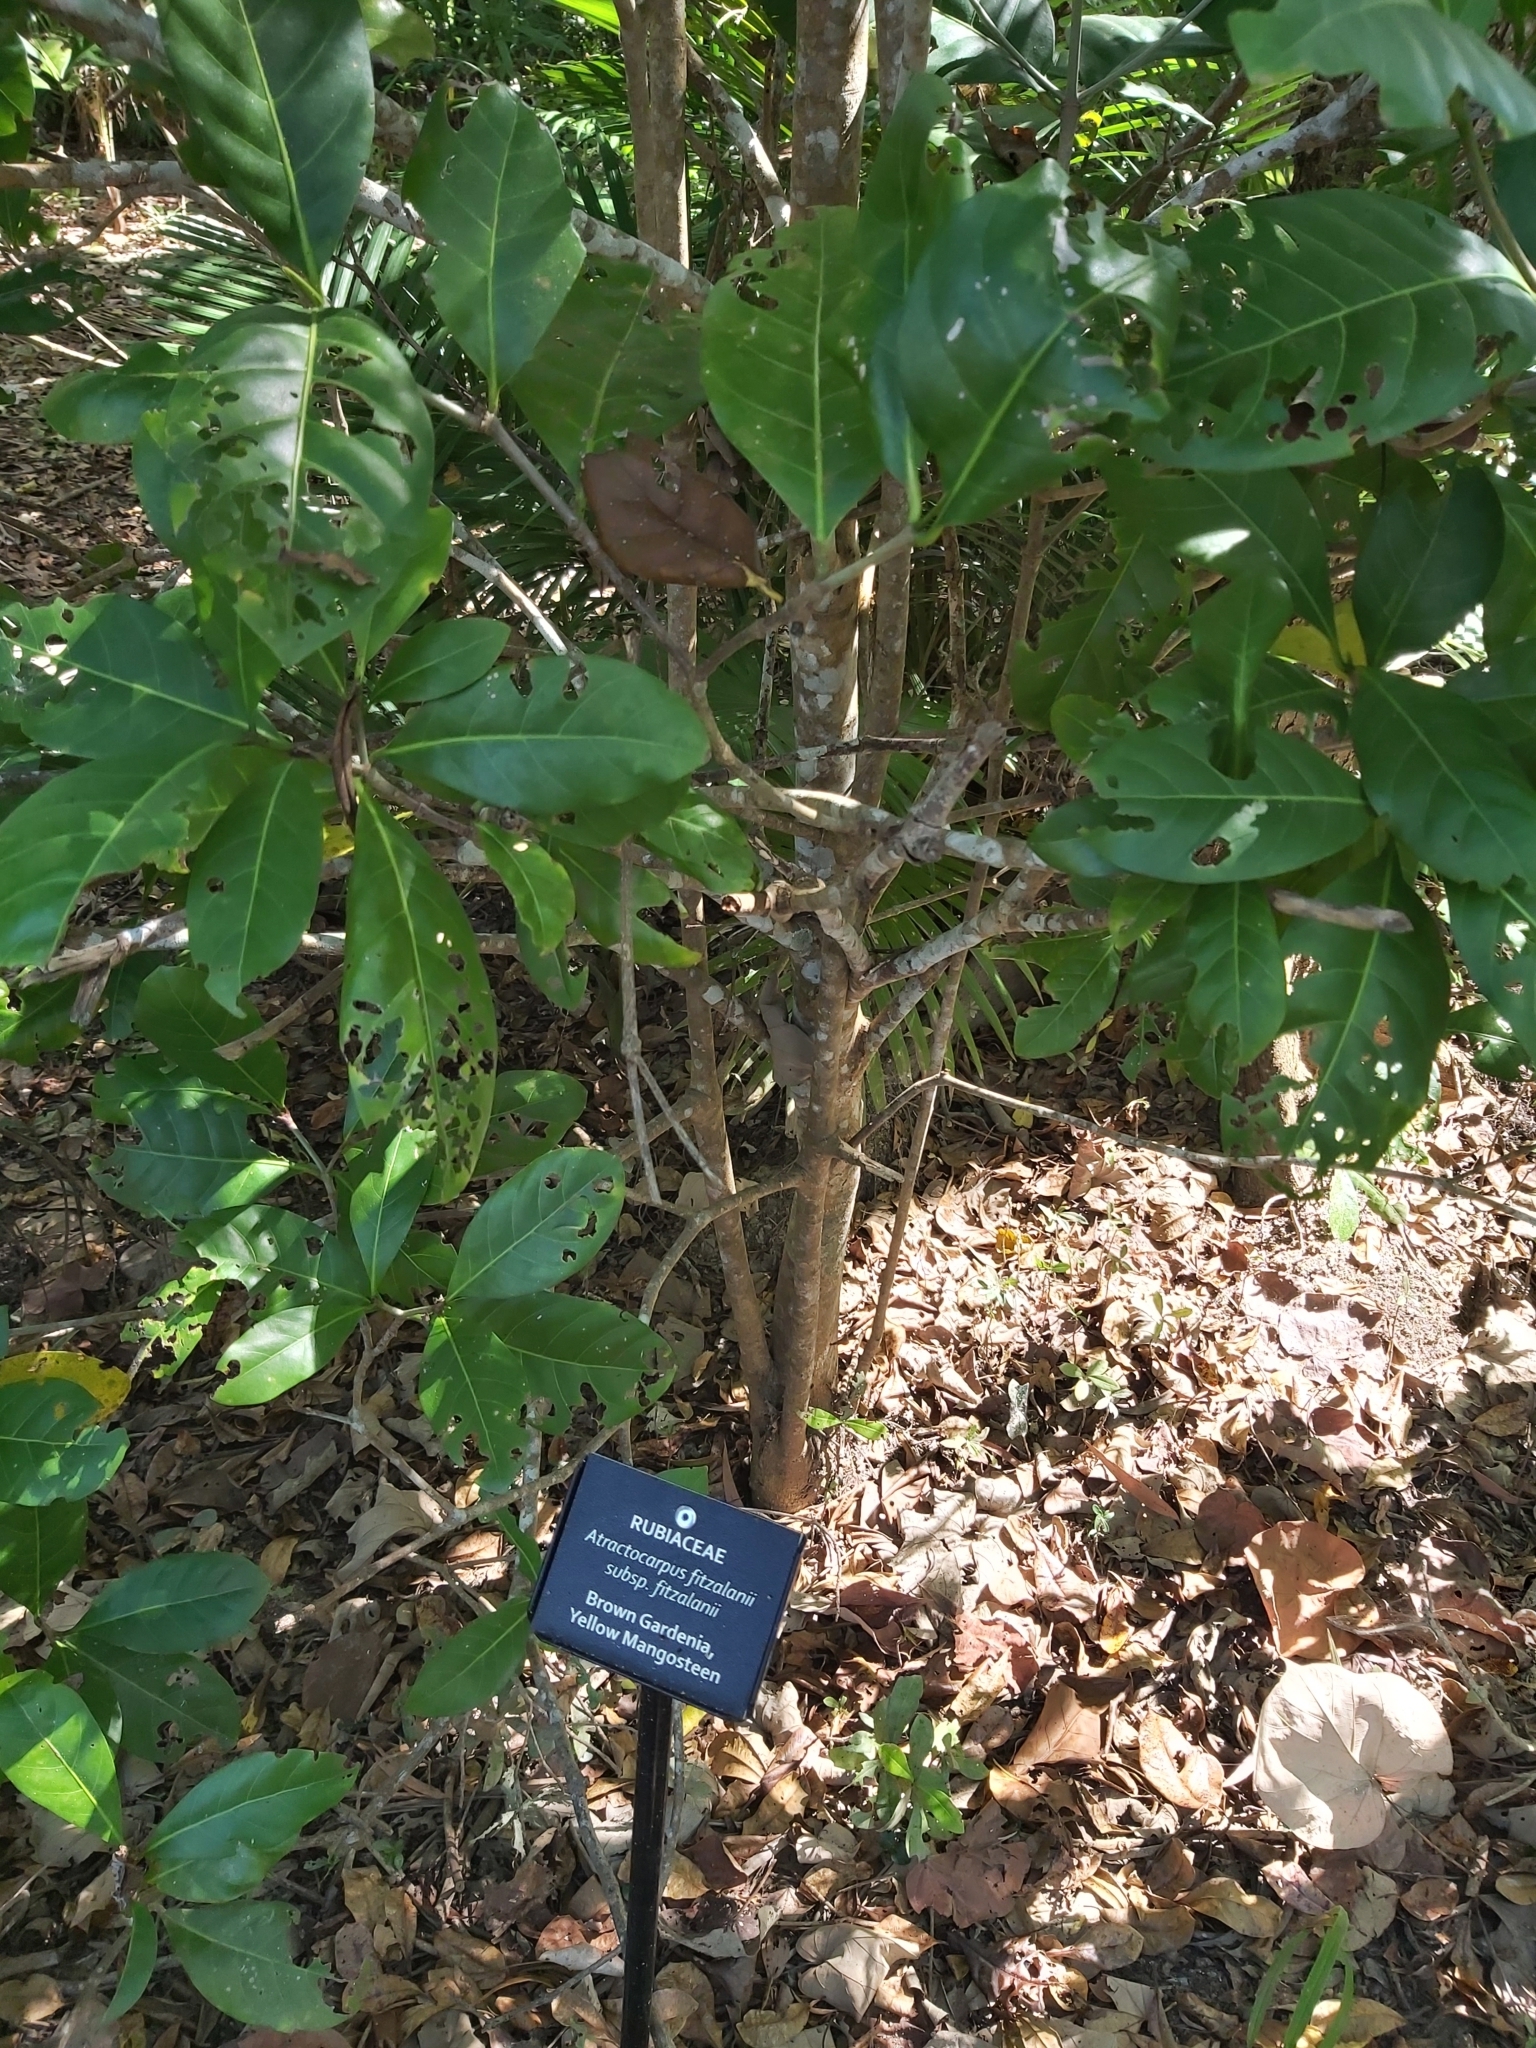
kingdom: Plantae
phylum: Tracheophyta
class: Magnoliopsida
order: Gentianales
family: Rubiaceae
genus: Atractocarpus
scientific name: Atractocarpus fitzalanii
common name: Randia
